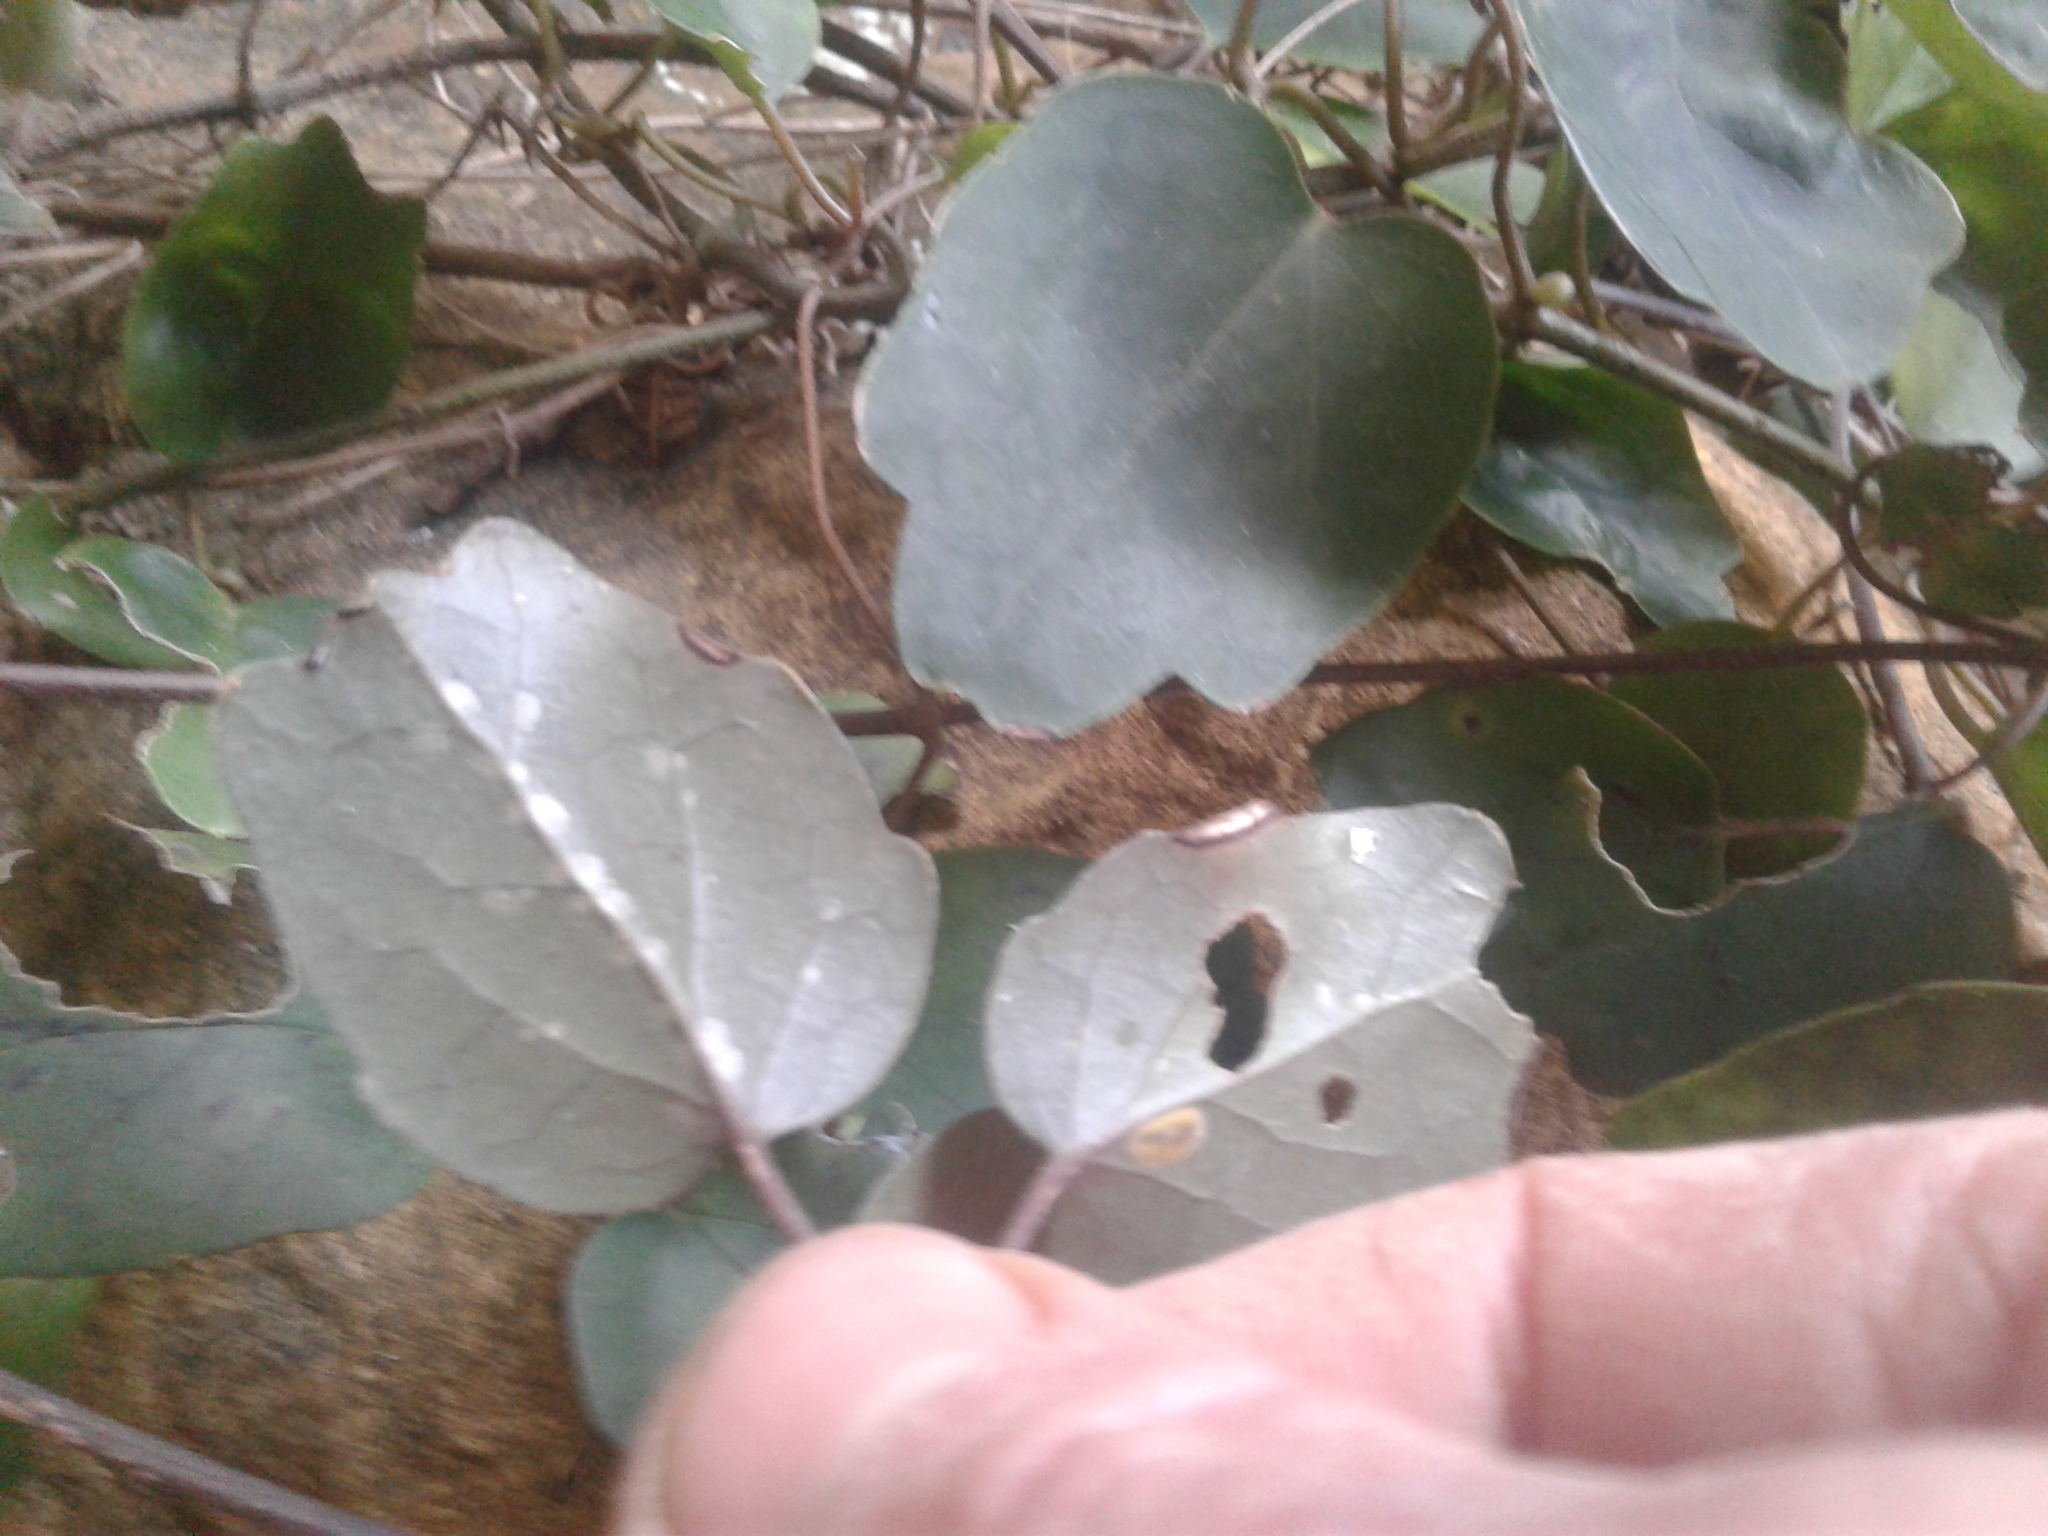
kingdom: Plantae
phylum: Tracheophyta
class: Magnoliopsida
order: Ranunculales
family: Ranunculaceae
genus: Clematis
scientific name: Clematis paniculata
